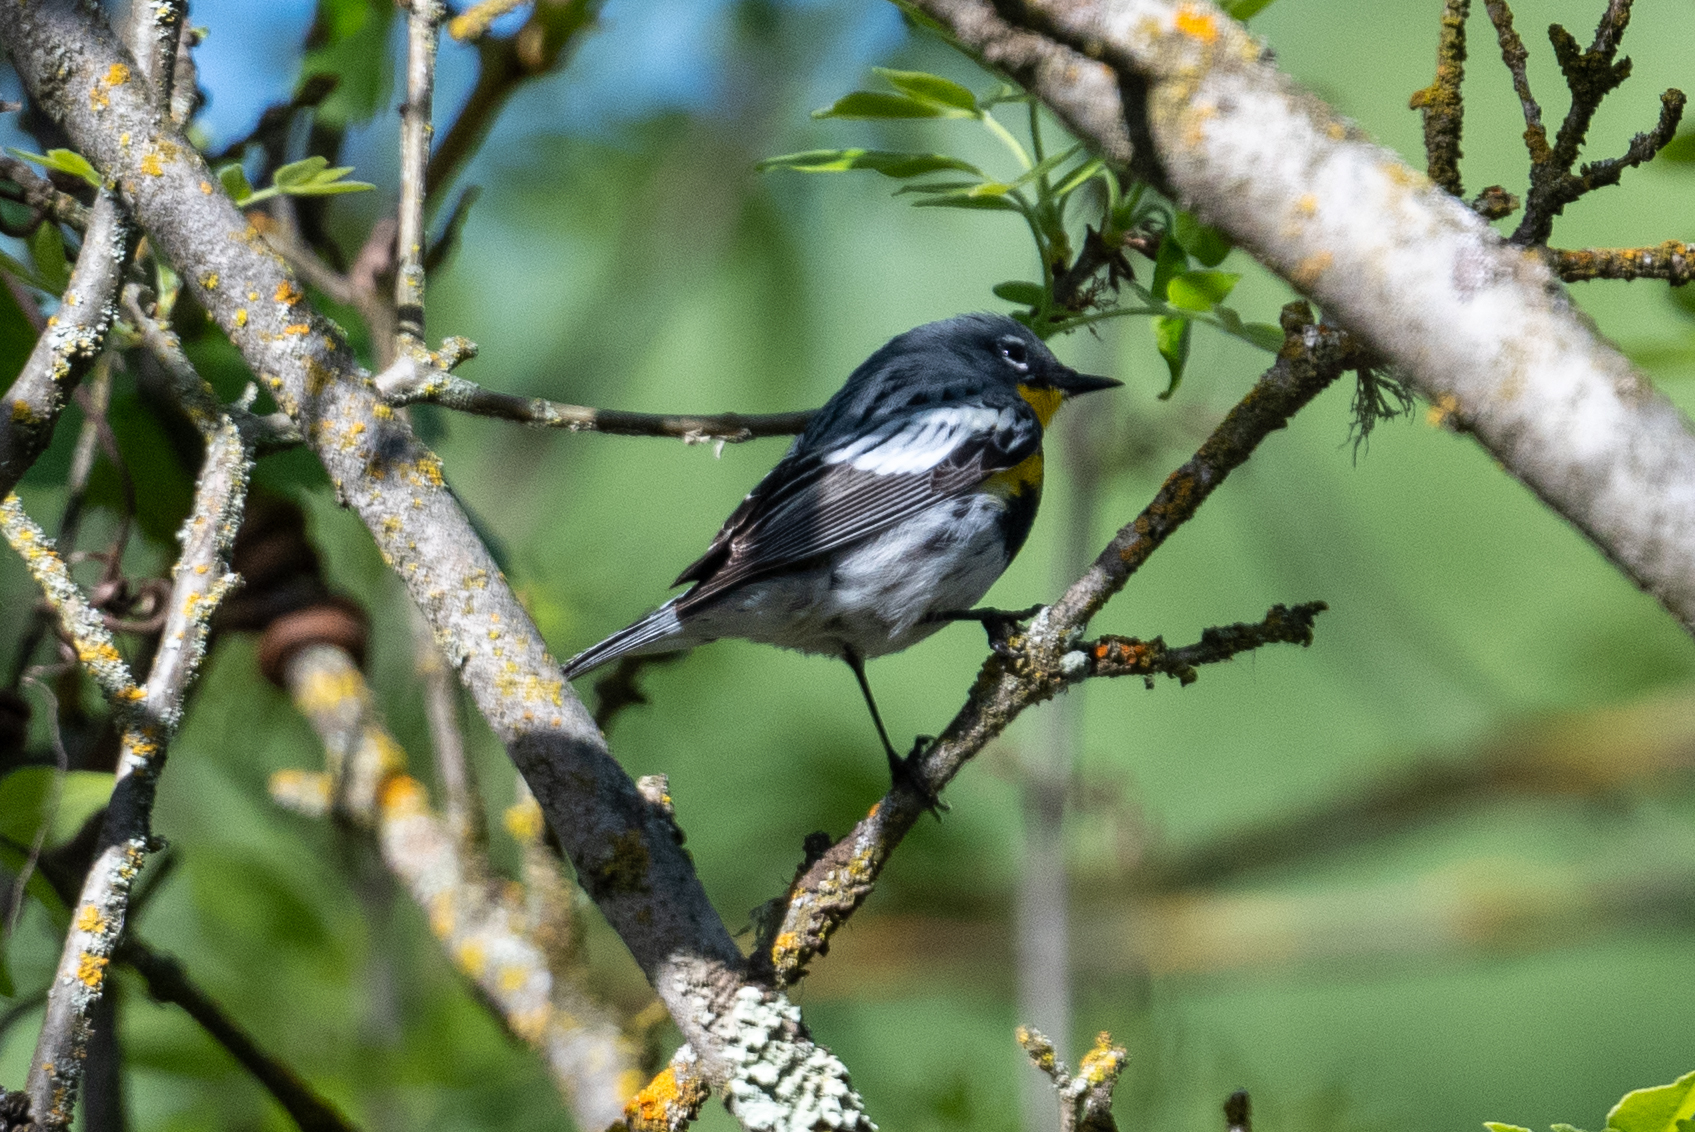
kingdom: Animalia
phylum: Chordata
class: Aves
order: Passeriformes
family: Parulidae
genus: Setophaga
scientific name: Setophaga coronata
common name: Myrtle warbler
